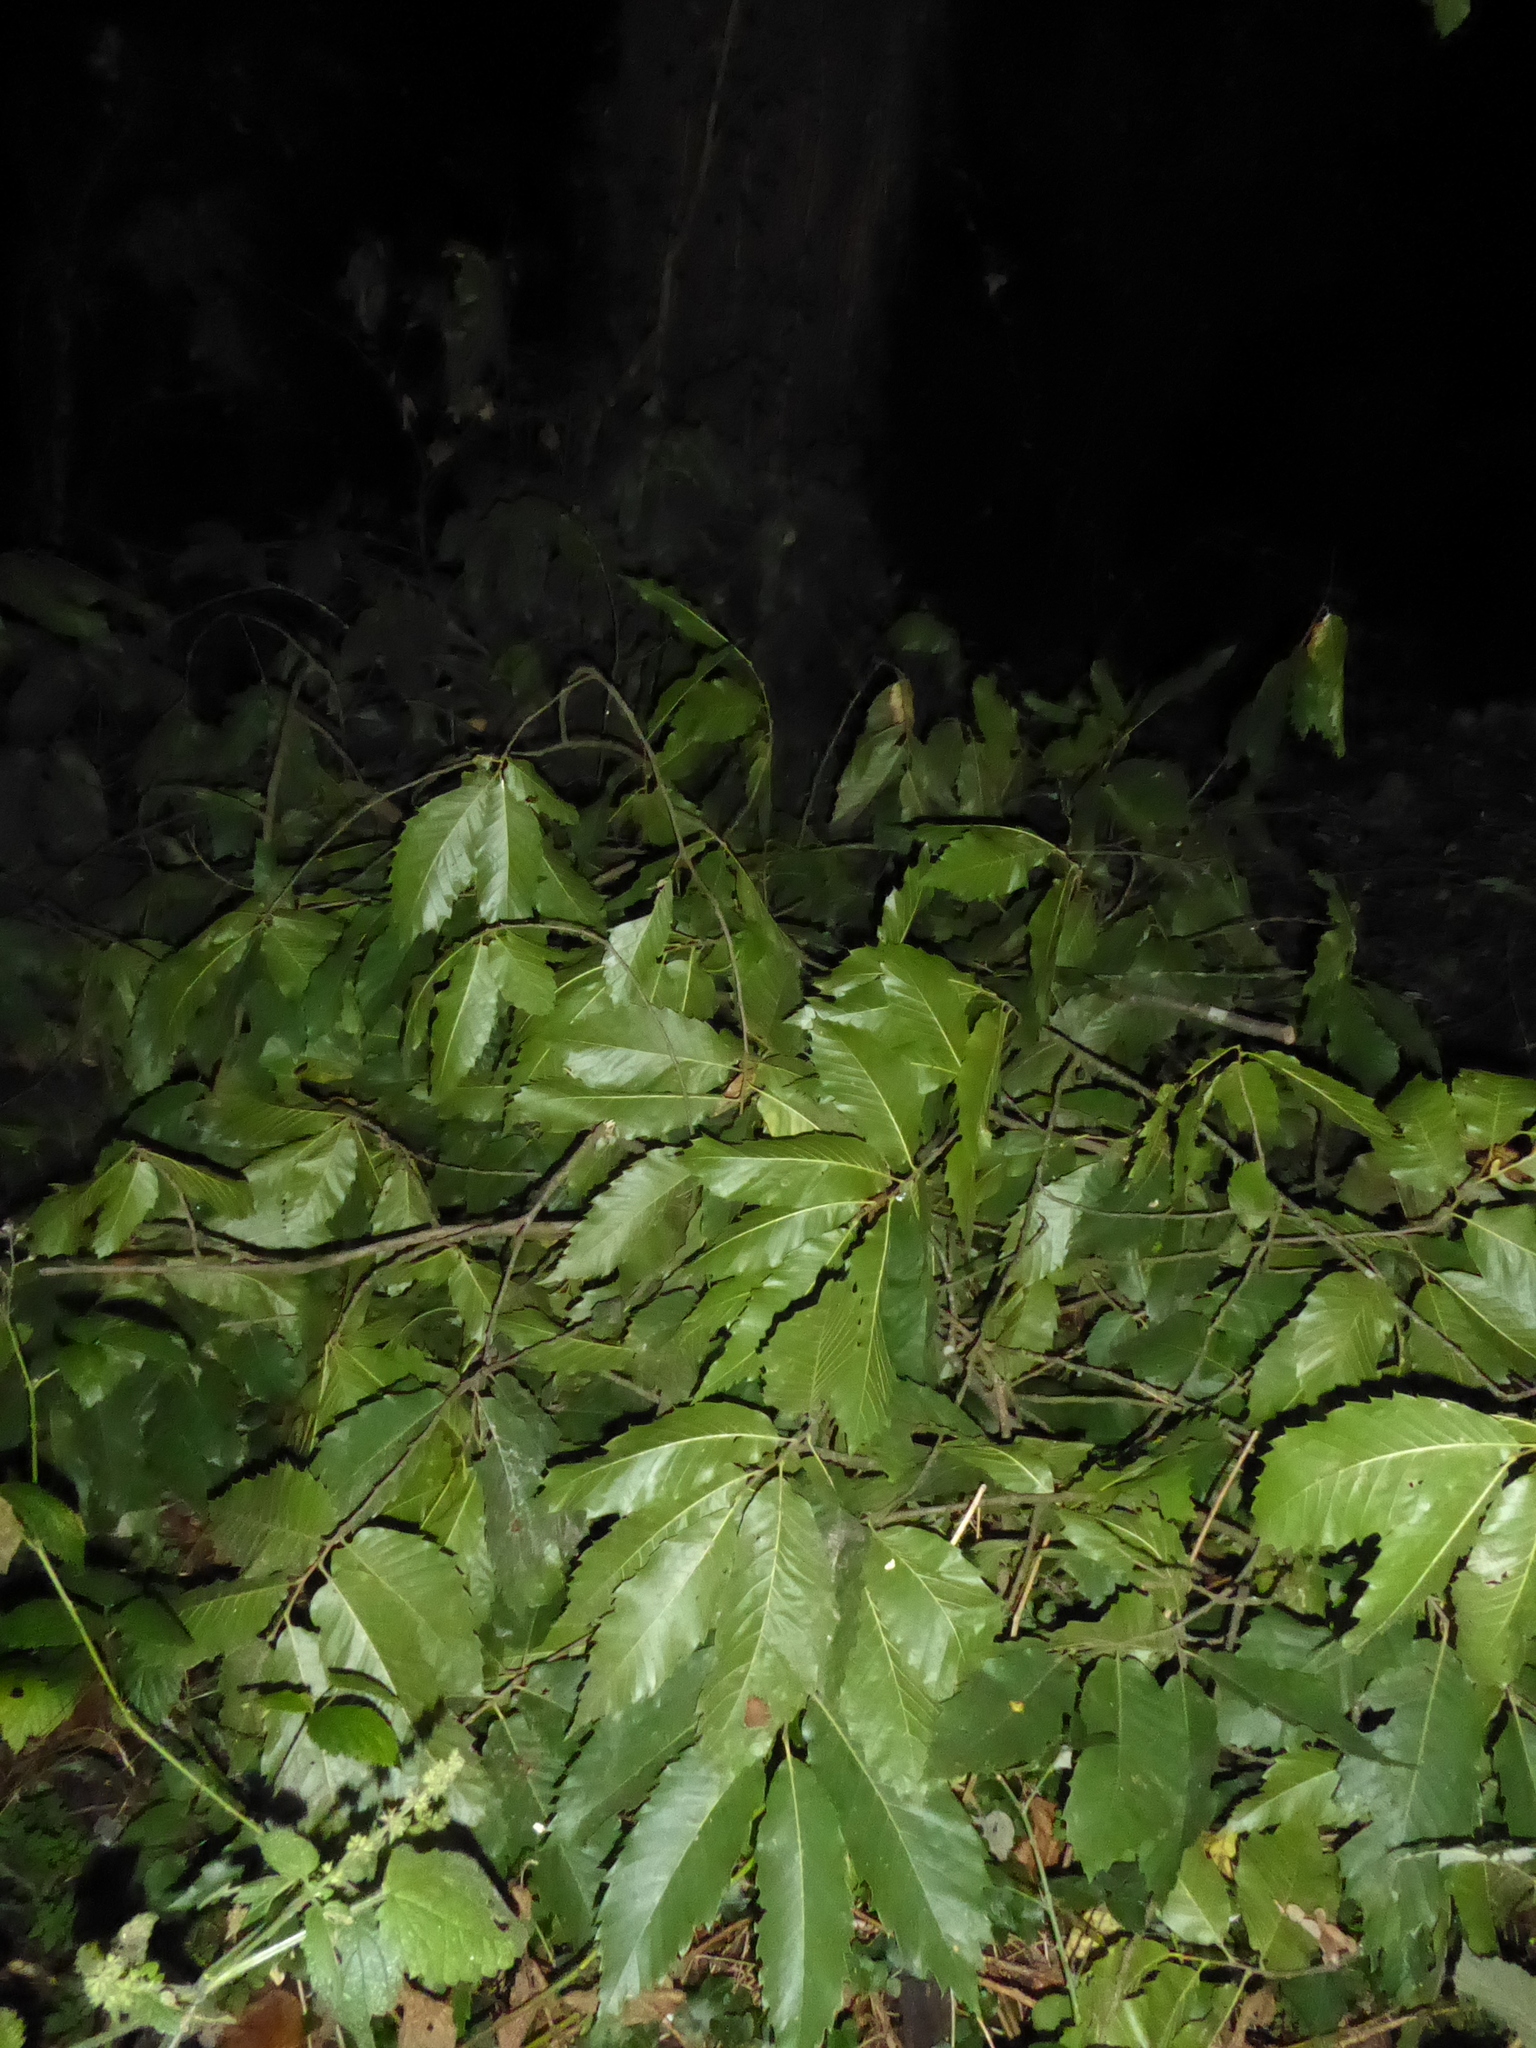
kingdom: Plantae
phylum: Tracheophyta
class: Magnoliopsida
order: Fagales
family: Fagaceae
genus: Castanea
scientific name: Castanea sativa
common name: Sweet chestnut
